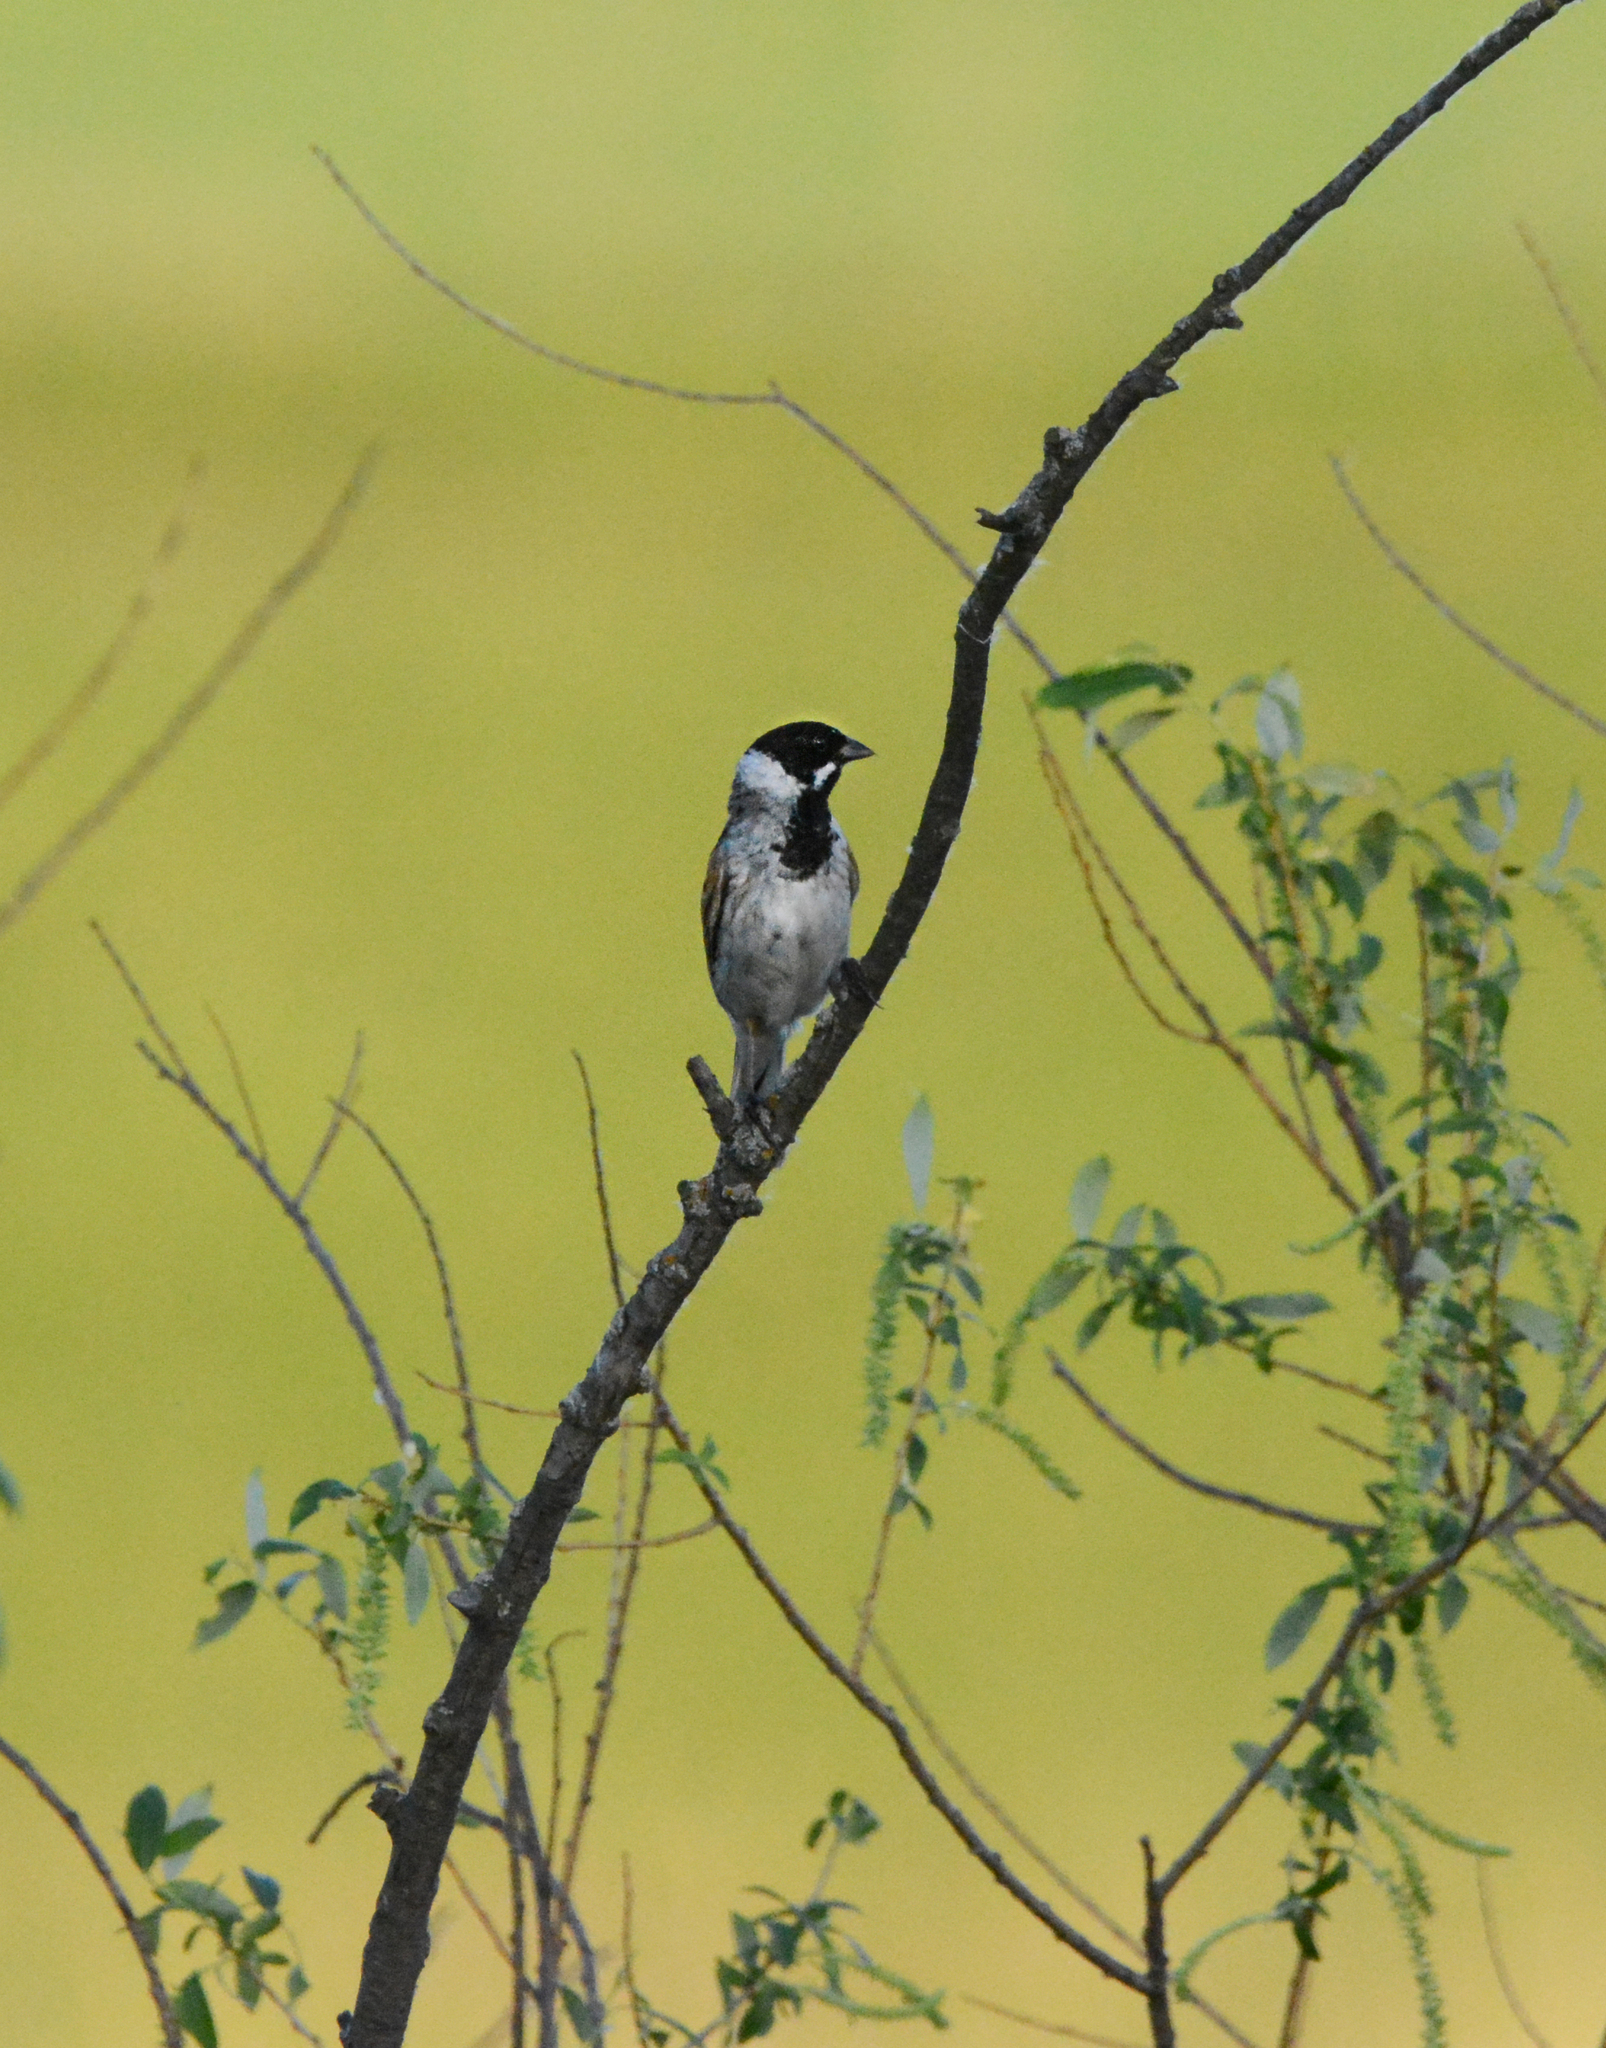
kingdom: Animalia
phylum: Chordata
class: Aves
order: Passeriformes
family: Emberizidae
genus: Emberiza
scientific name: Emberiza schoeniclus
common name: Reed bunting
